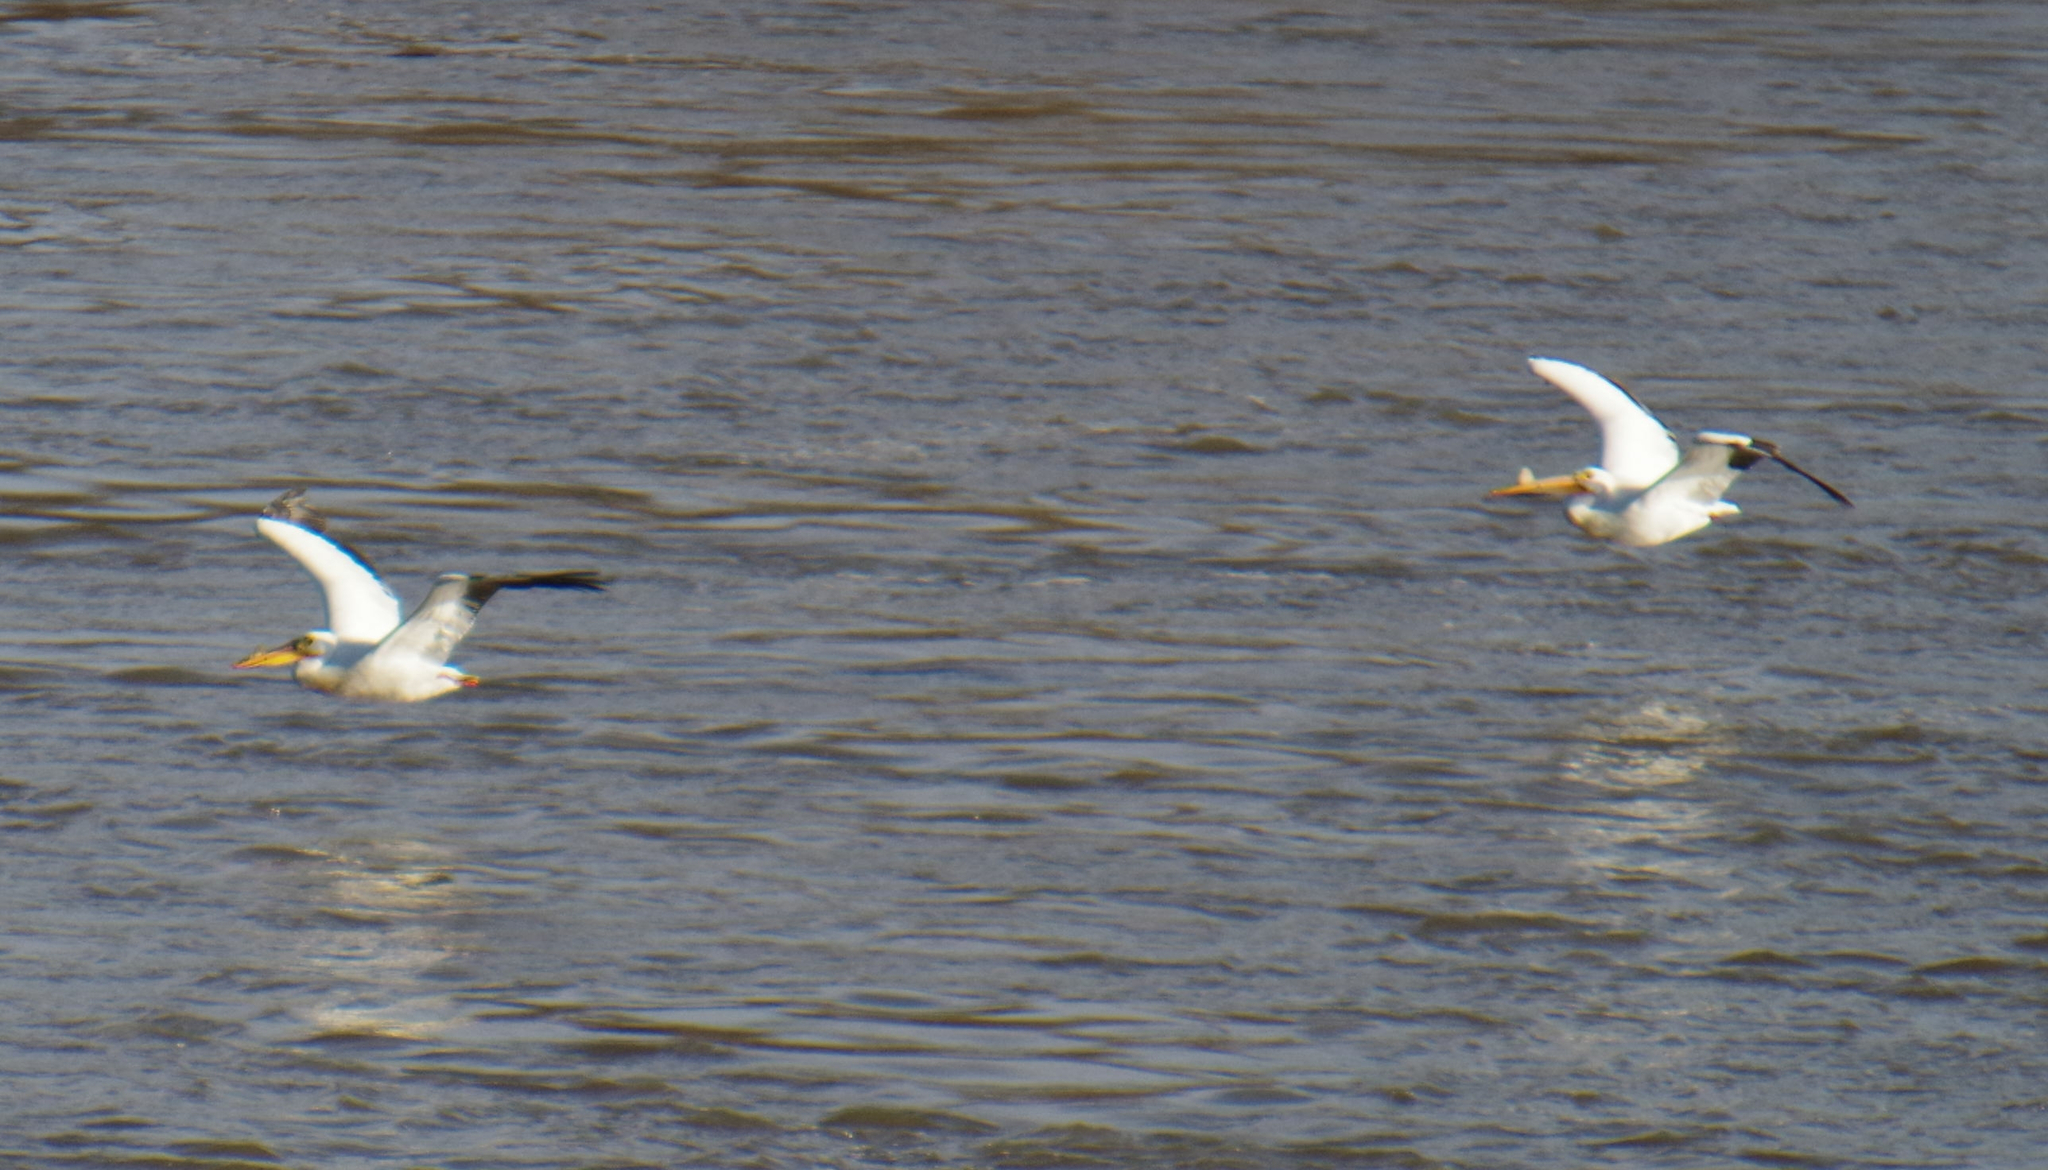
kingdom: Animalia
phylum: Chordata
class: Aves
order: Pelecaniformes
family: Pelecanidae
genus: Pelecanus
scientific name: Pelecanus erythrorhynchos
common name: American white pelican
